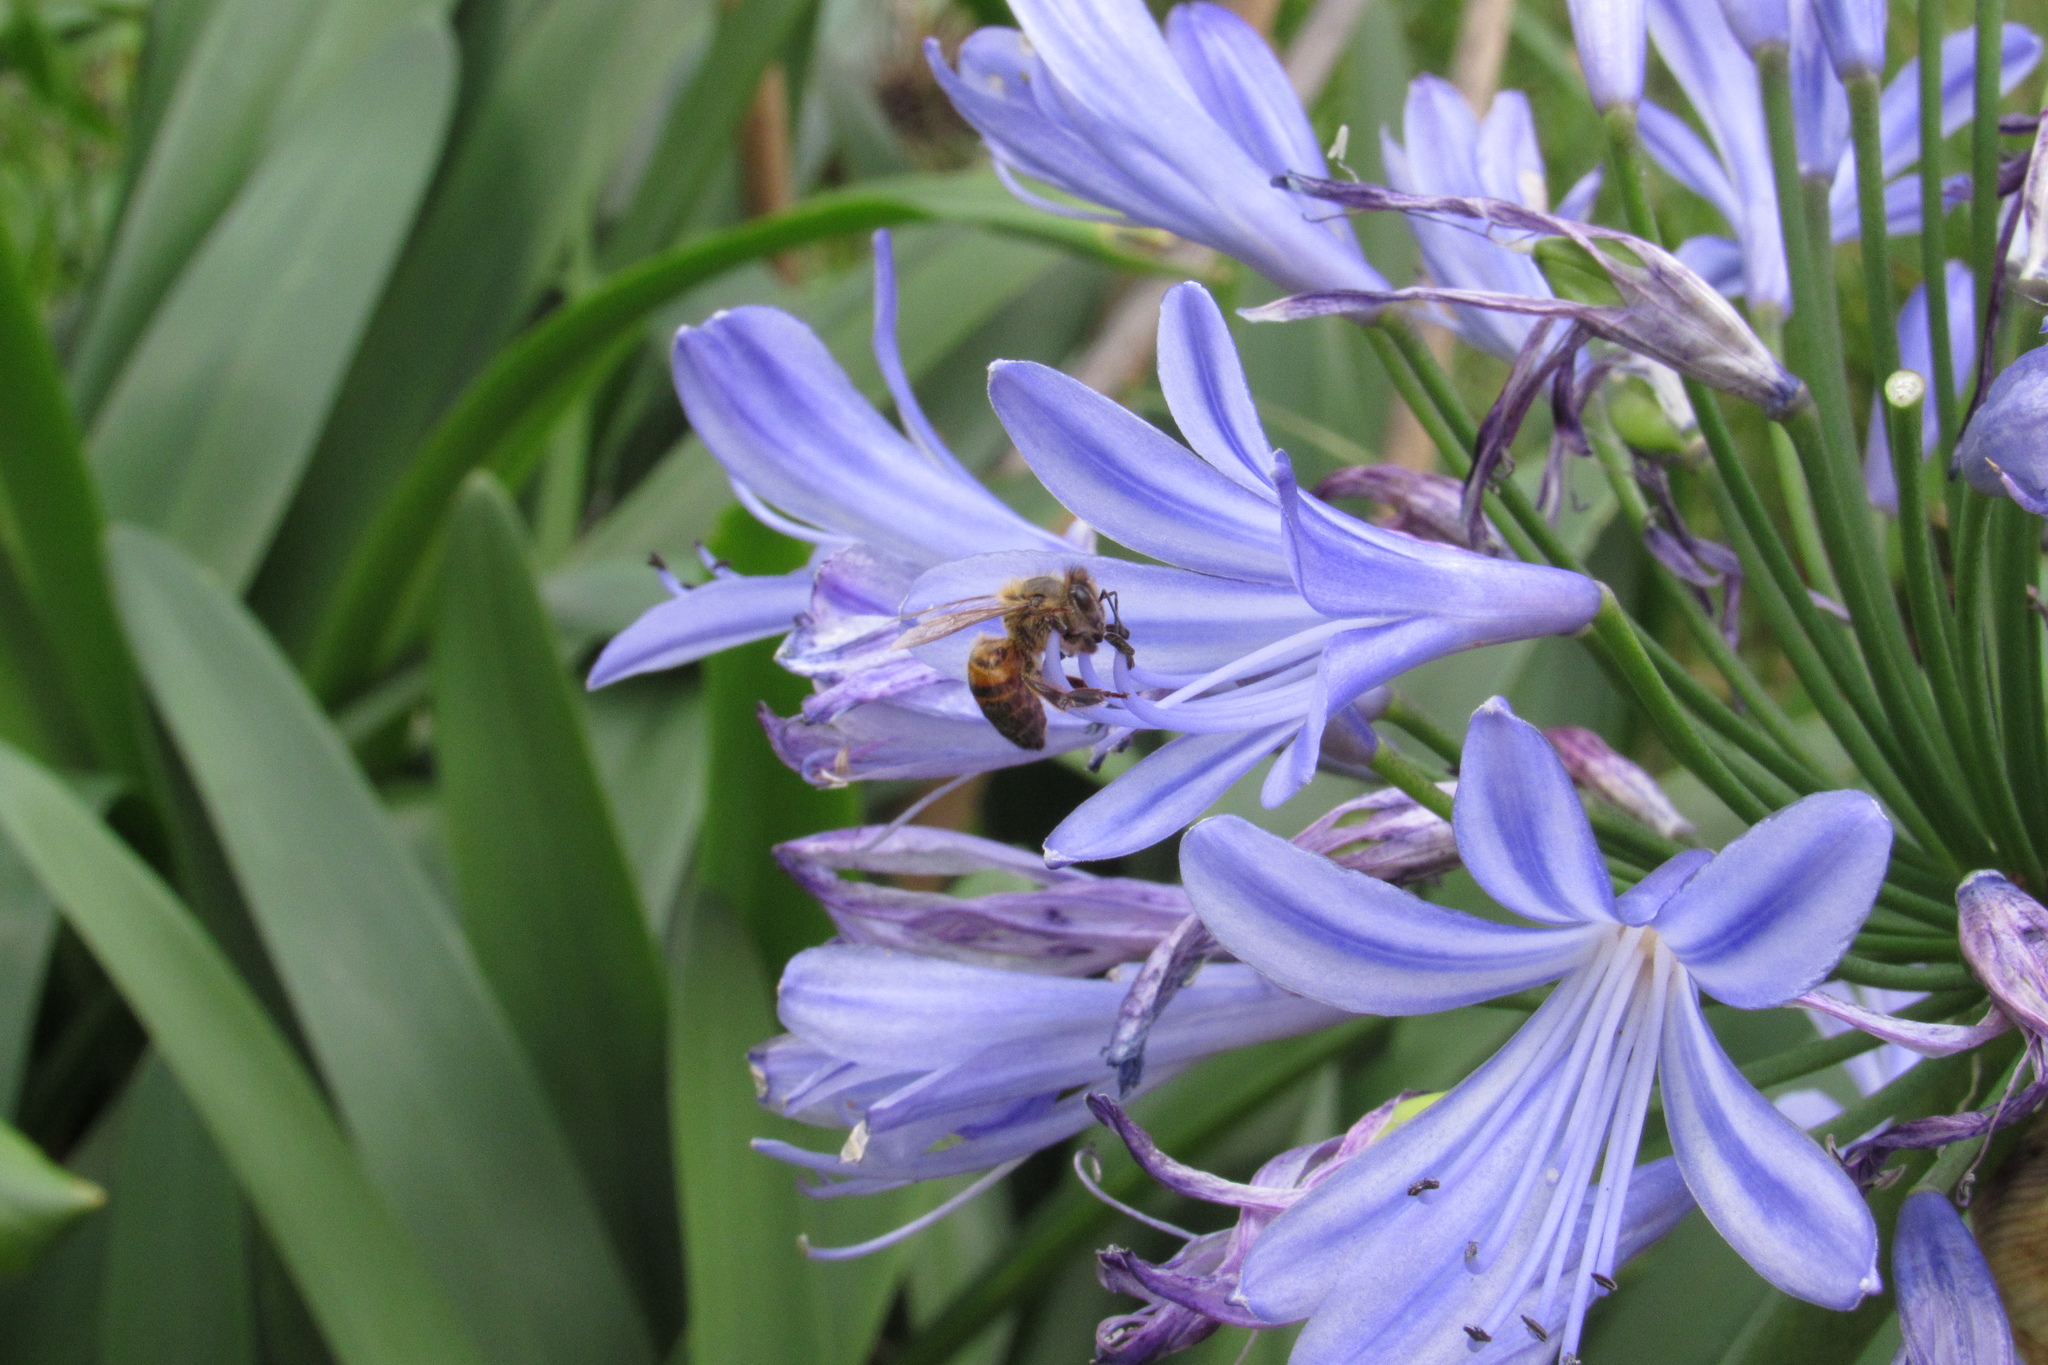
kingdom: Animalia
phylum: Arthropoda
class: Insecta
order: Hymenoptera
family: Apidae
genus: Apis
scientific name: Apis mellifera
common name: Honey bee
